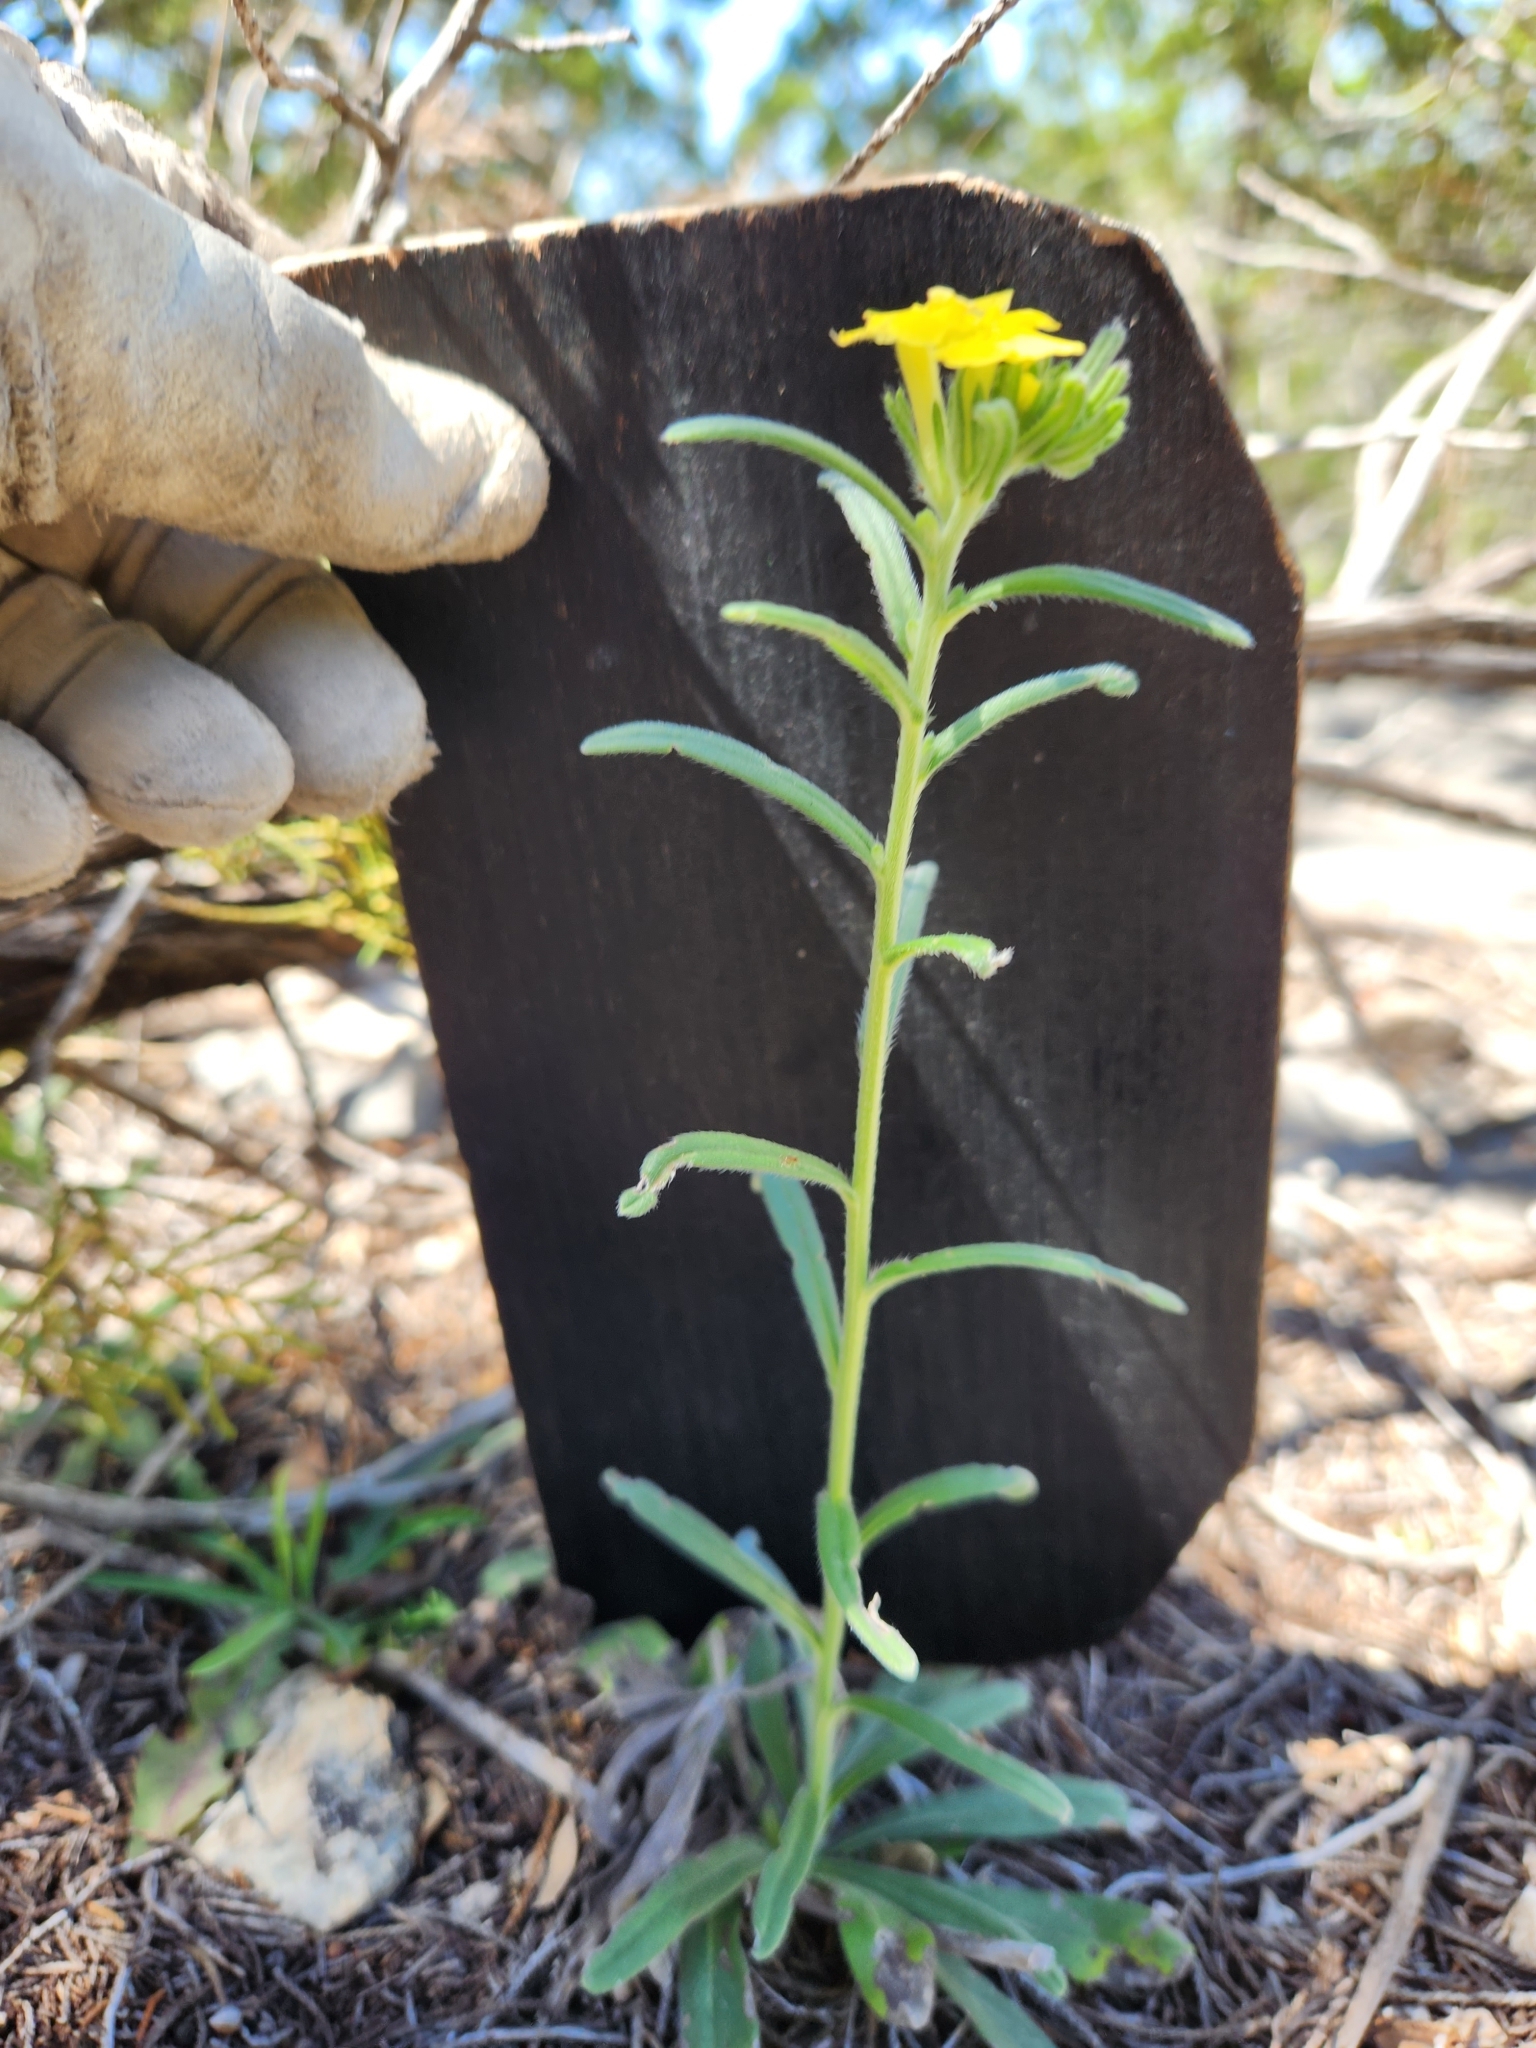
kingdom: Plantae
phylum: Tracheophyta
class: Magnoliopsida
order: Boraginales
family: Boraginaceae
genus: Lithospermum
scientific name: Lithospermum mirabile
